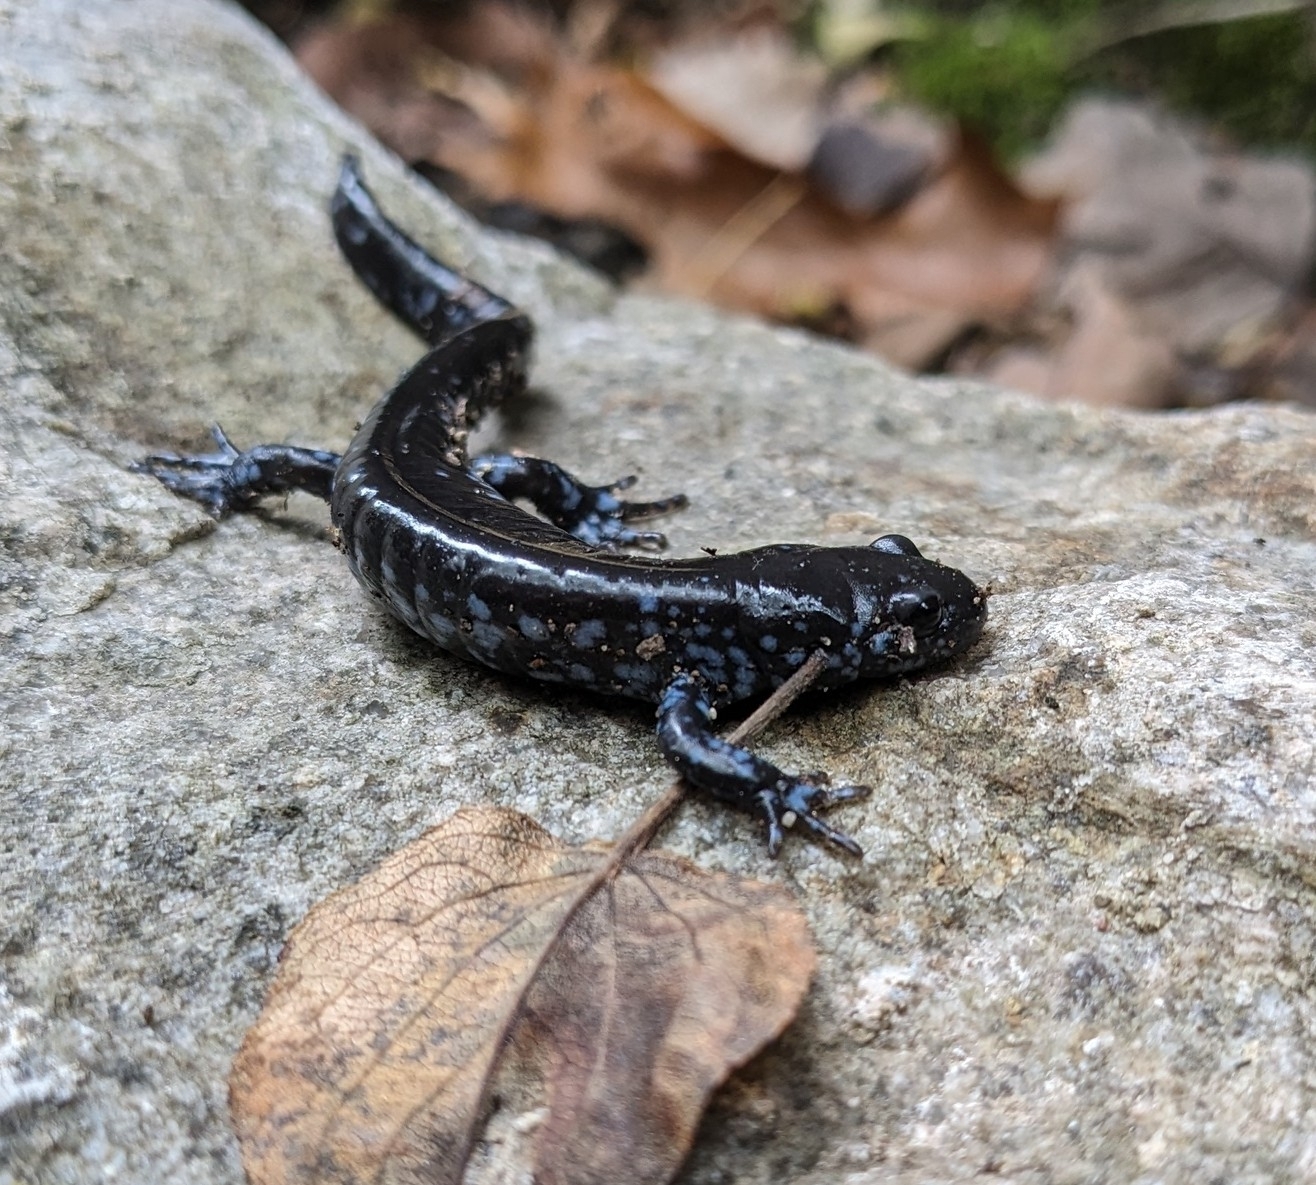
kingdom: Animalia
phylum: Chordata
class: Amphibia
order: Caudata
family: Ambystomatidae
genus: Ambystoma
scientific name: Ambystoma laterale
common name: Blue-spotted salamander
